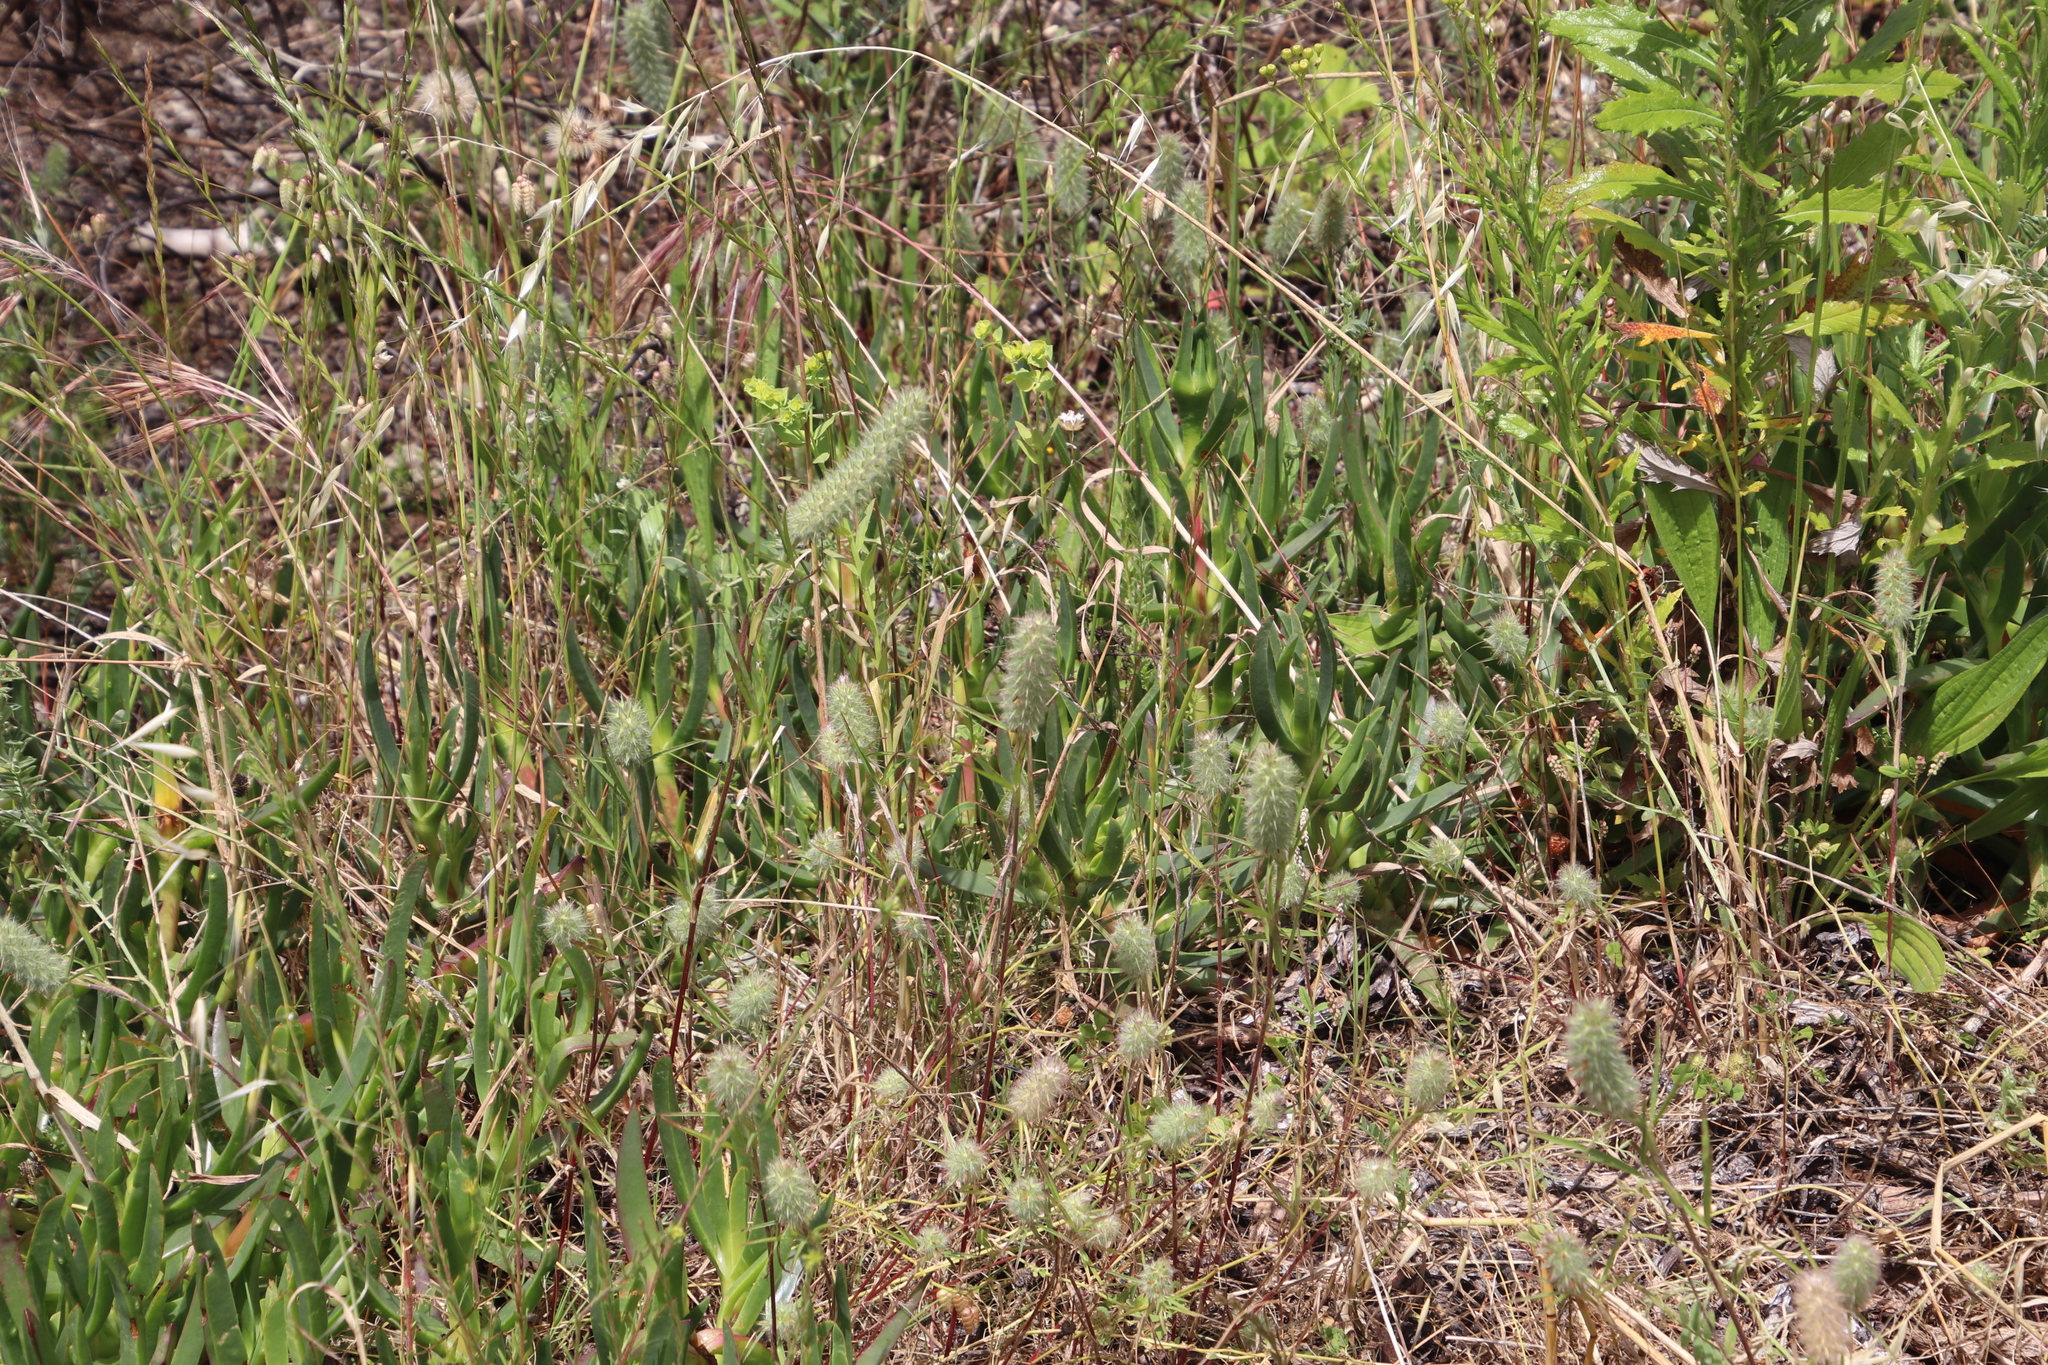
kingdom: Plantae
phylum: Tracheophyta
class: Magnoliopsida
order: Fabales
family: Fabaceae
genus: Trifolium
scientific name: Trifolium angustifolium
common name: Narrow clover
